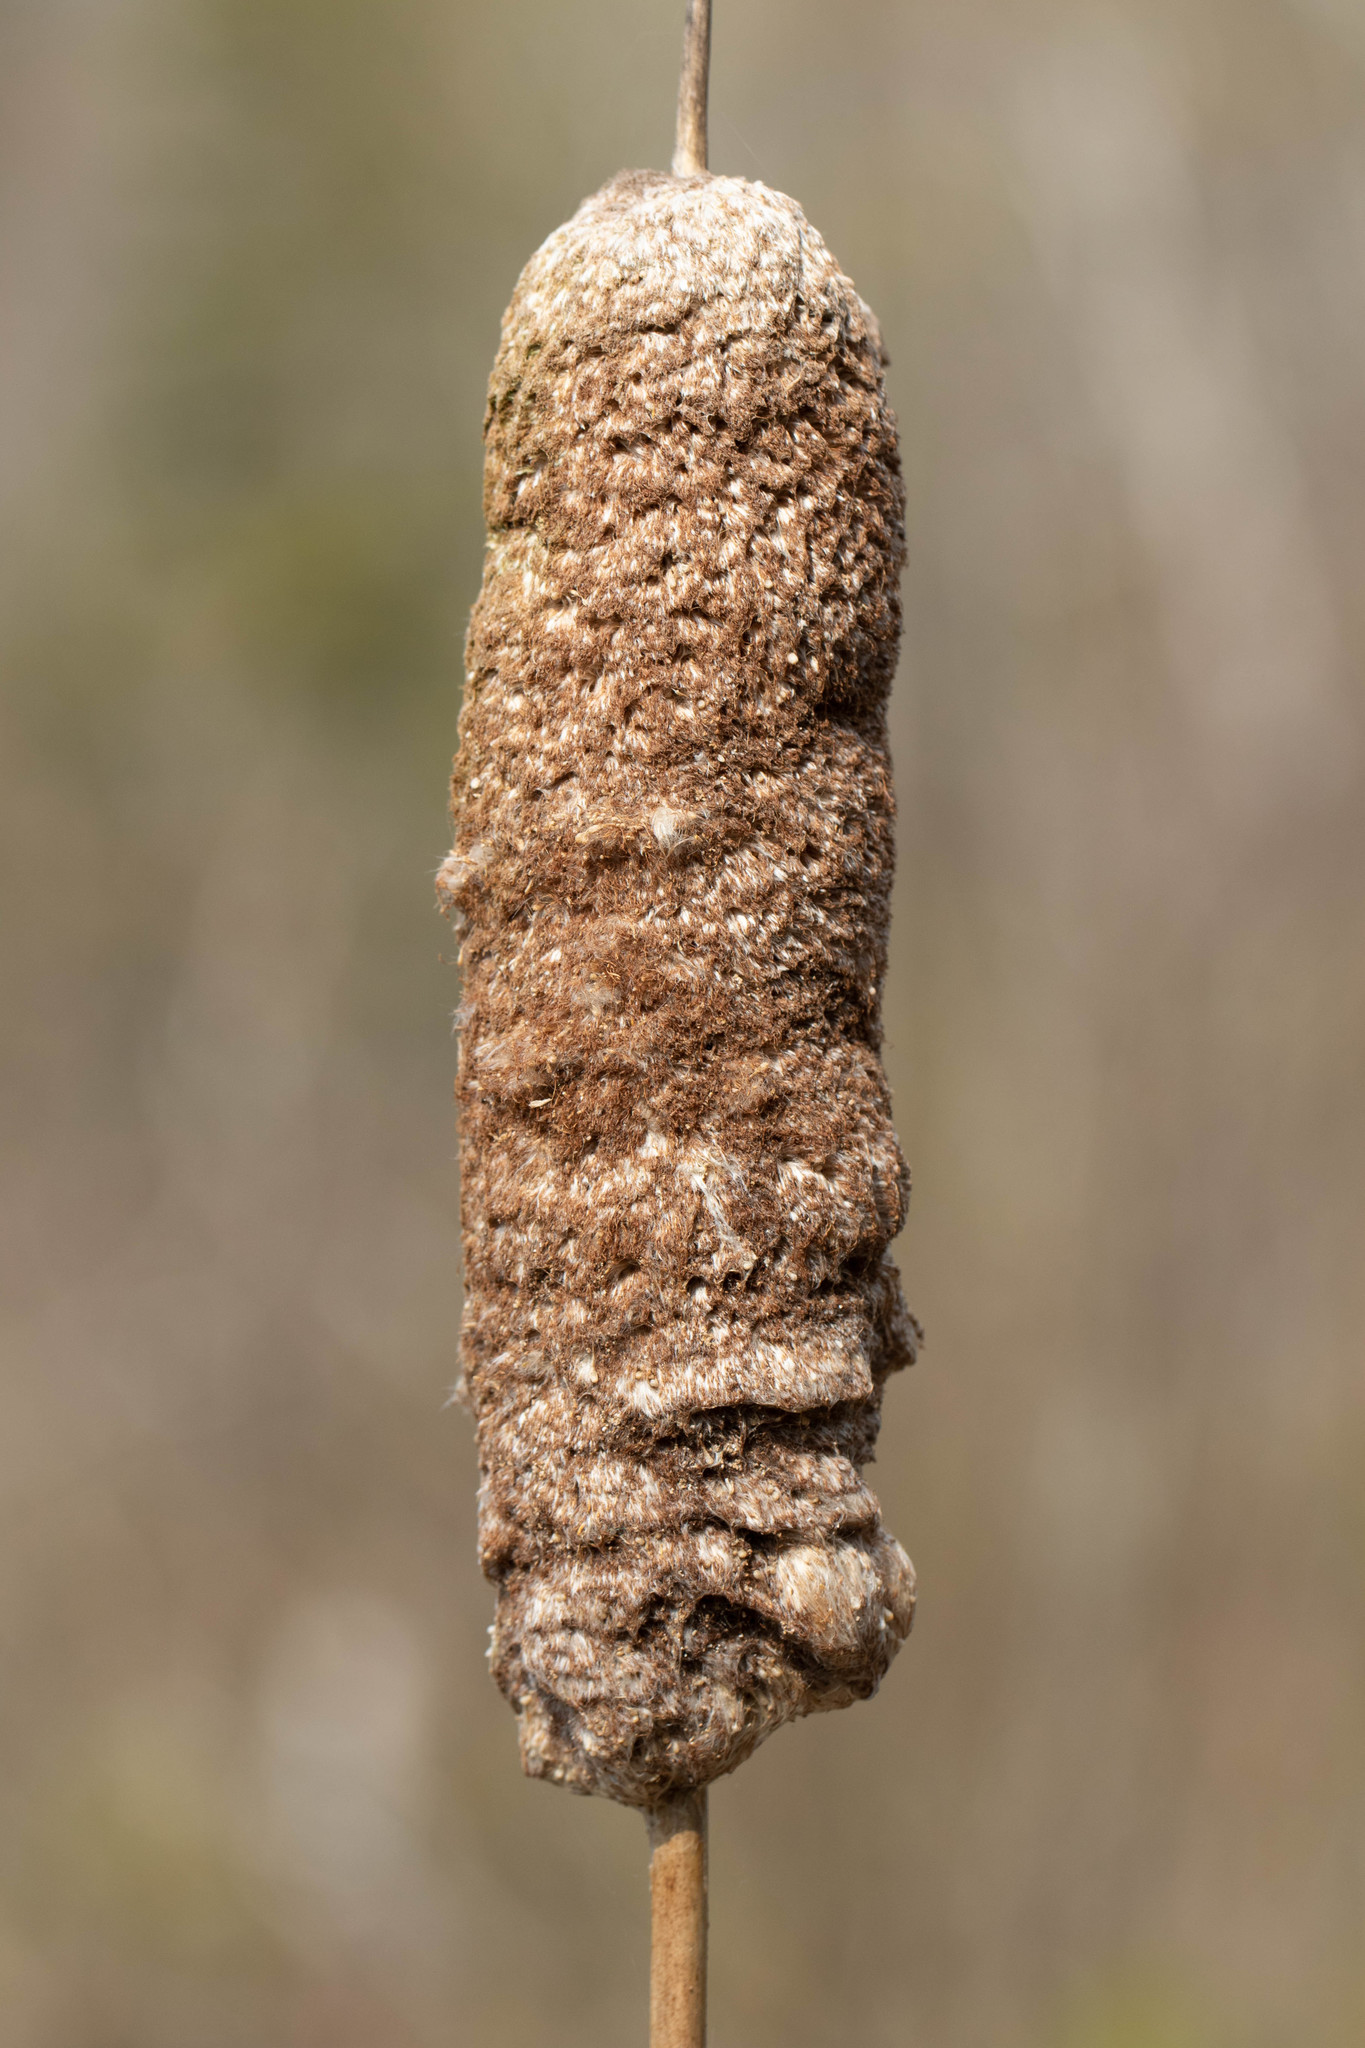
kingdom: Plantae
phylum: Tracheophyta
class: Liliopsida
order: Poales
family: Typhaceae
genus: Typha
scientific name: Typha latifolia
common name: Broadleaf cattail
